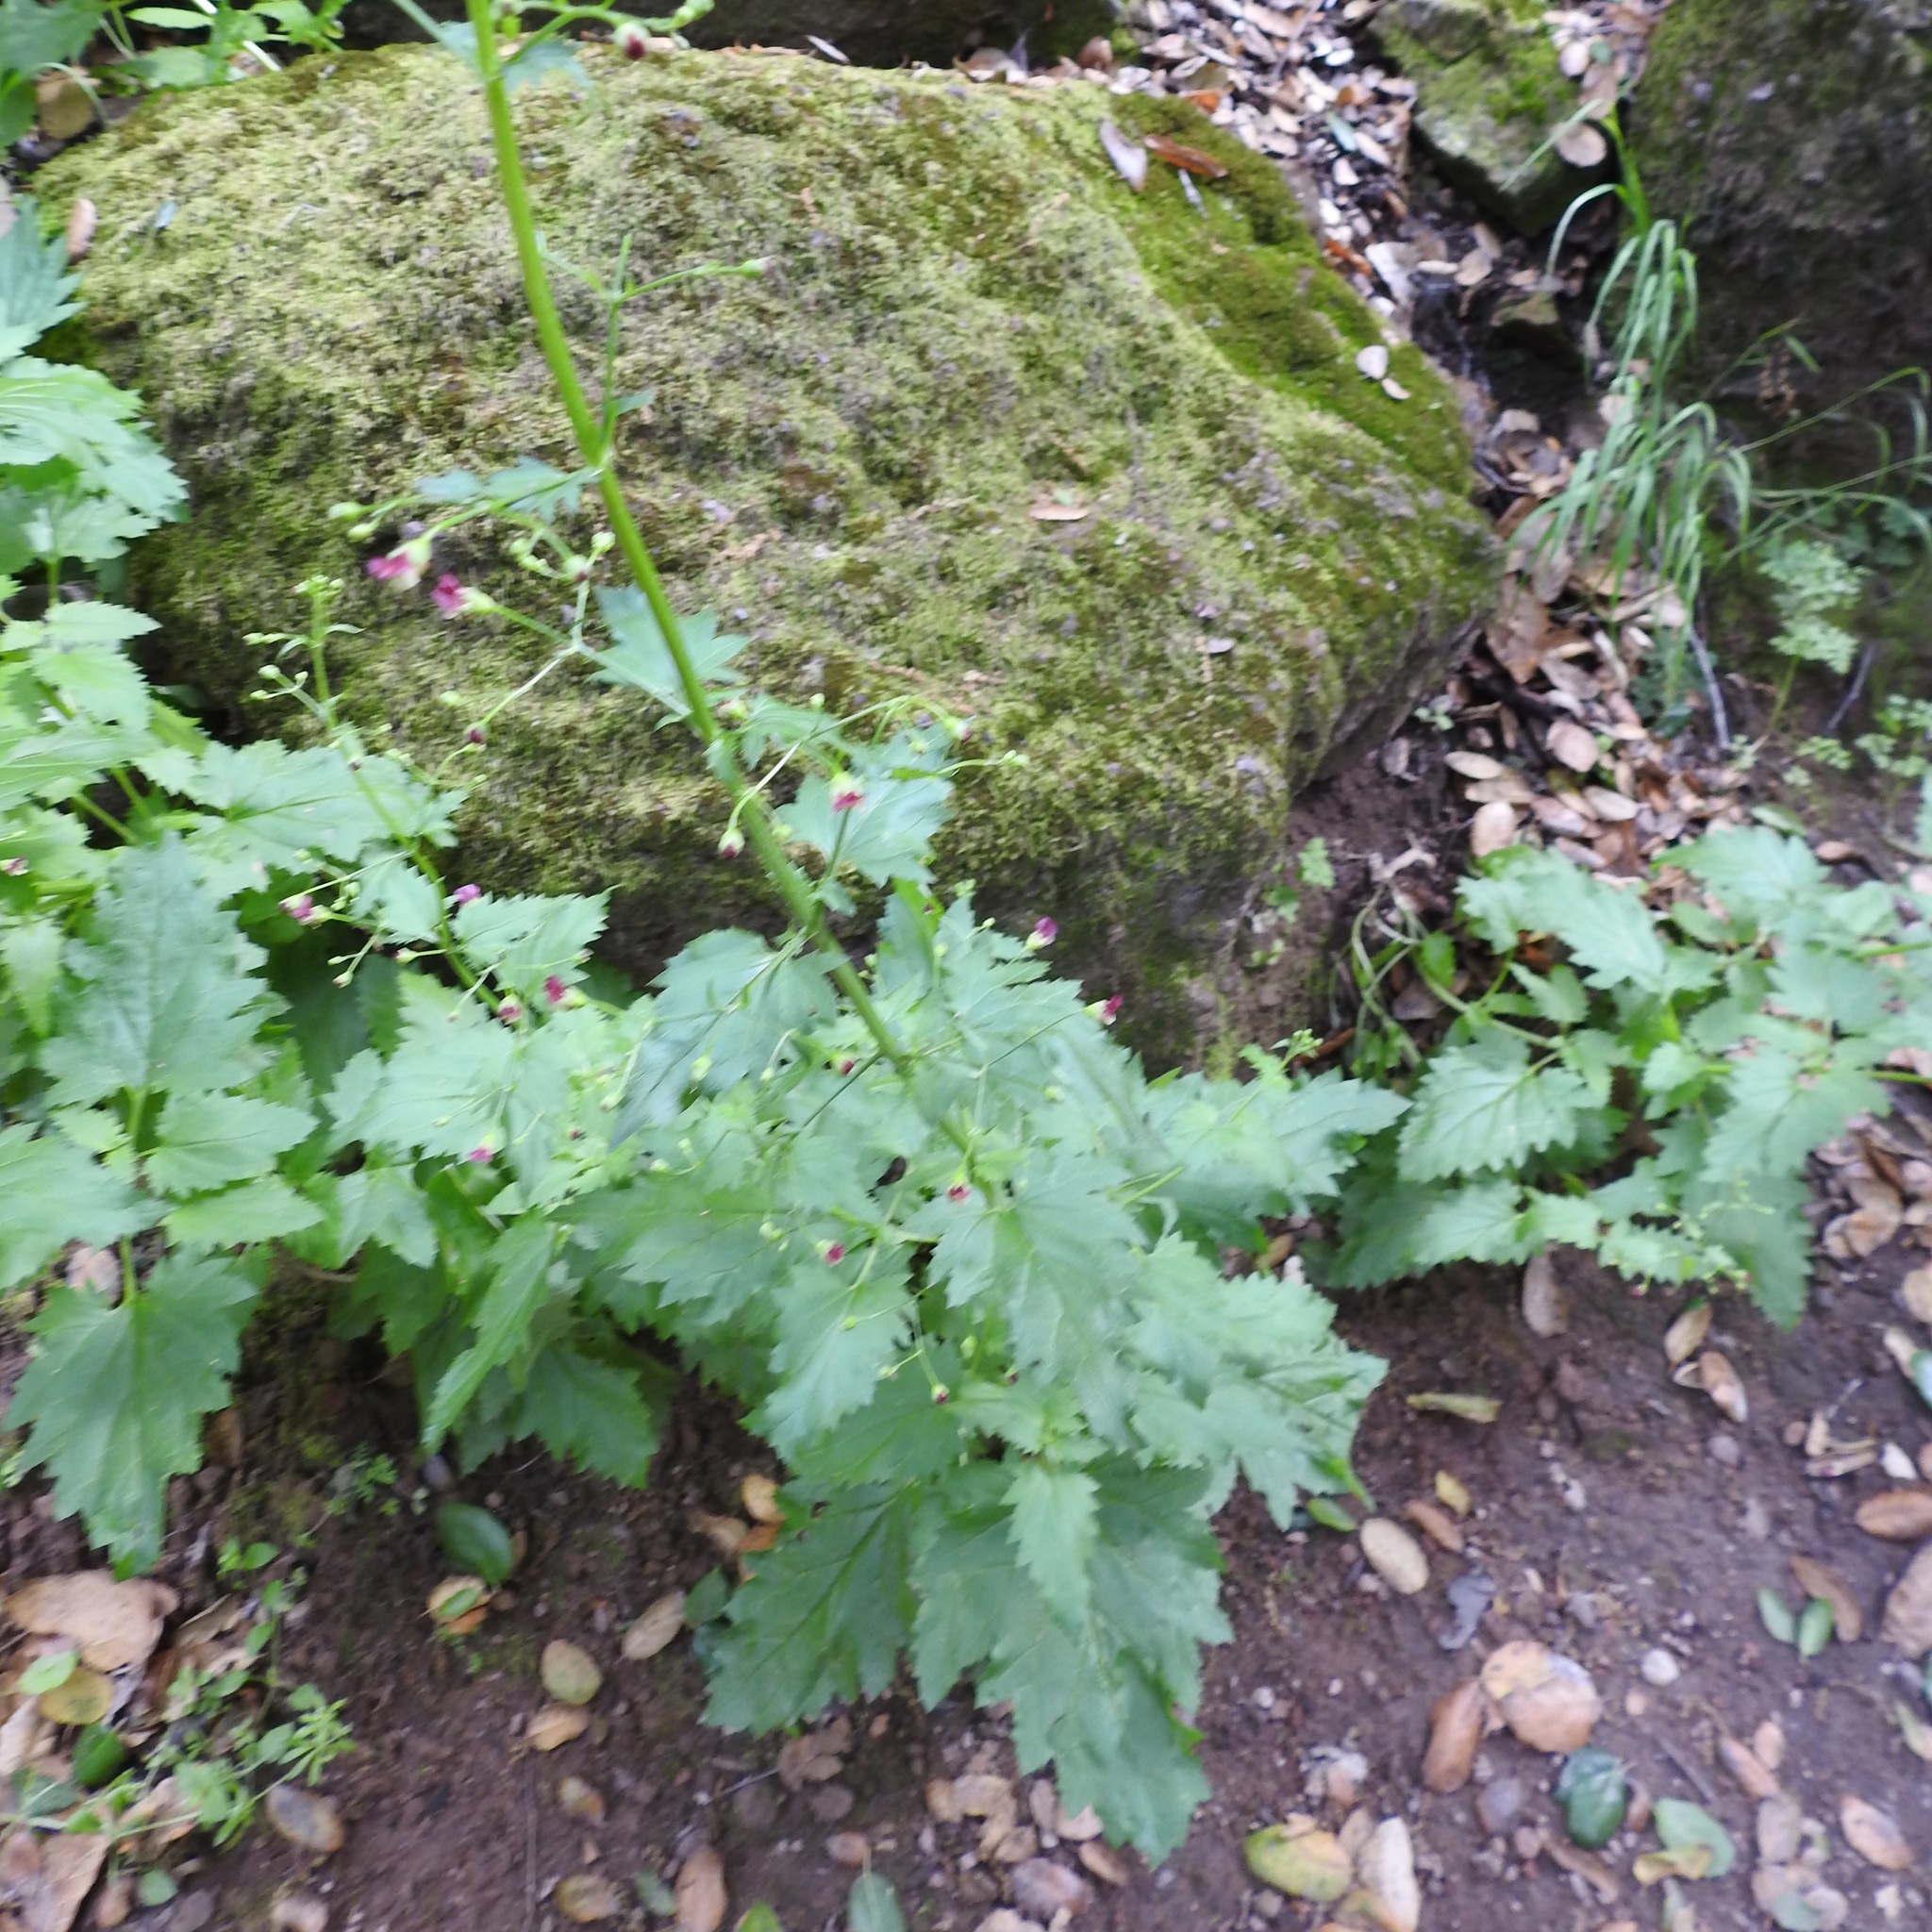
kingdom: Plantae
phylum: Tracheophyta
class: Magnoliopsida
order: Lamiales
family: Scrophulariaceae
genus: Scrophularia
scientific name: Scrophularia californica
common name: California figwort
